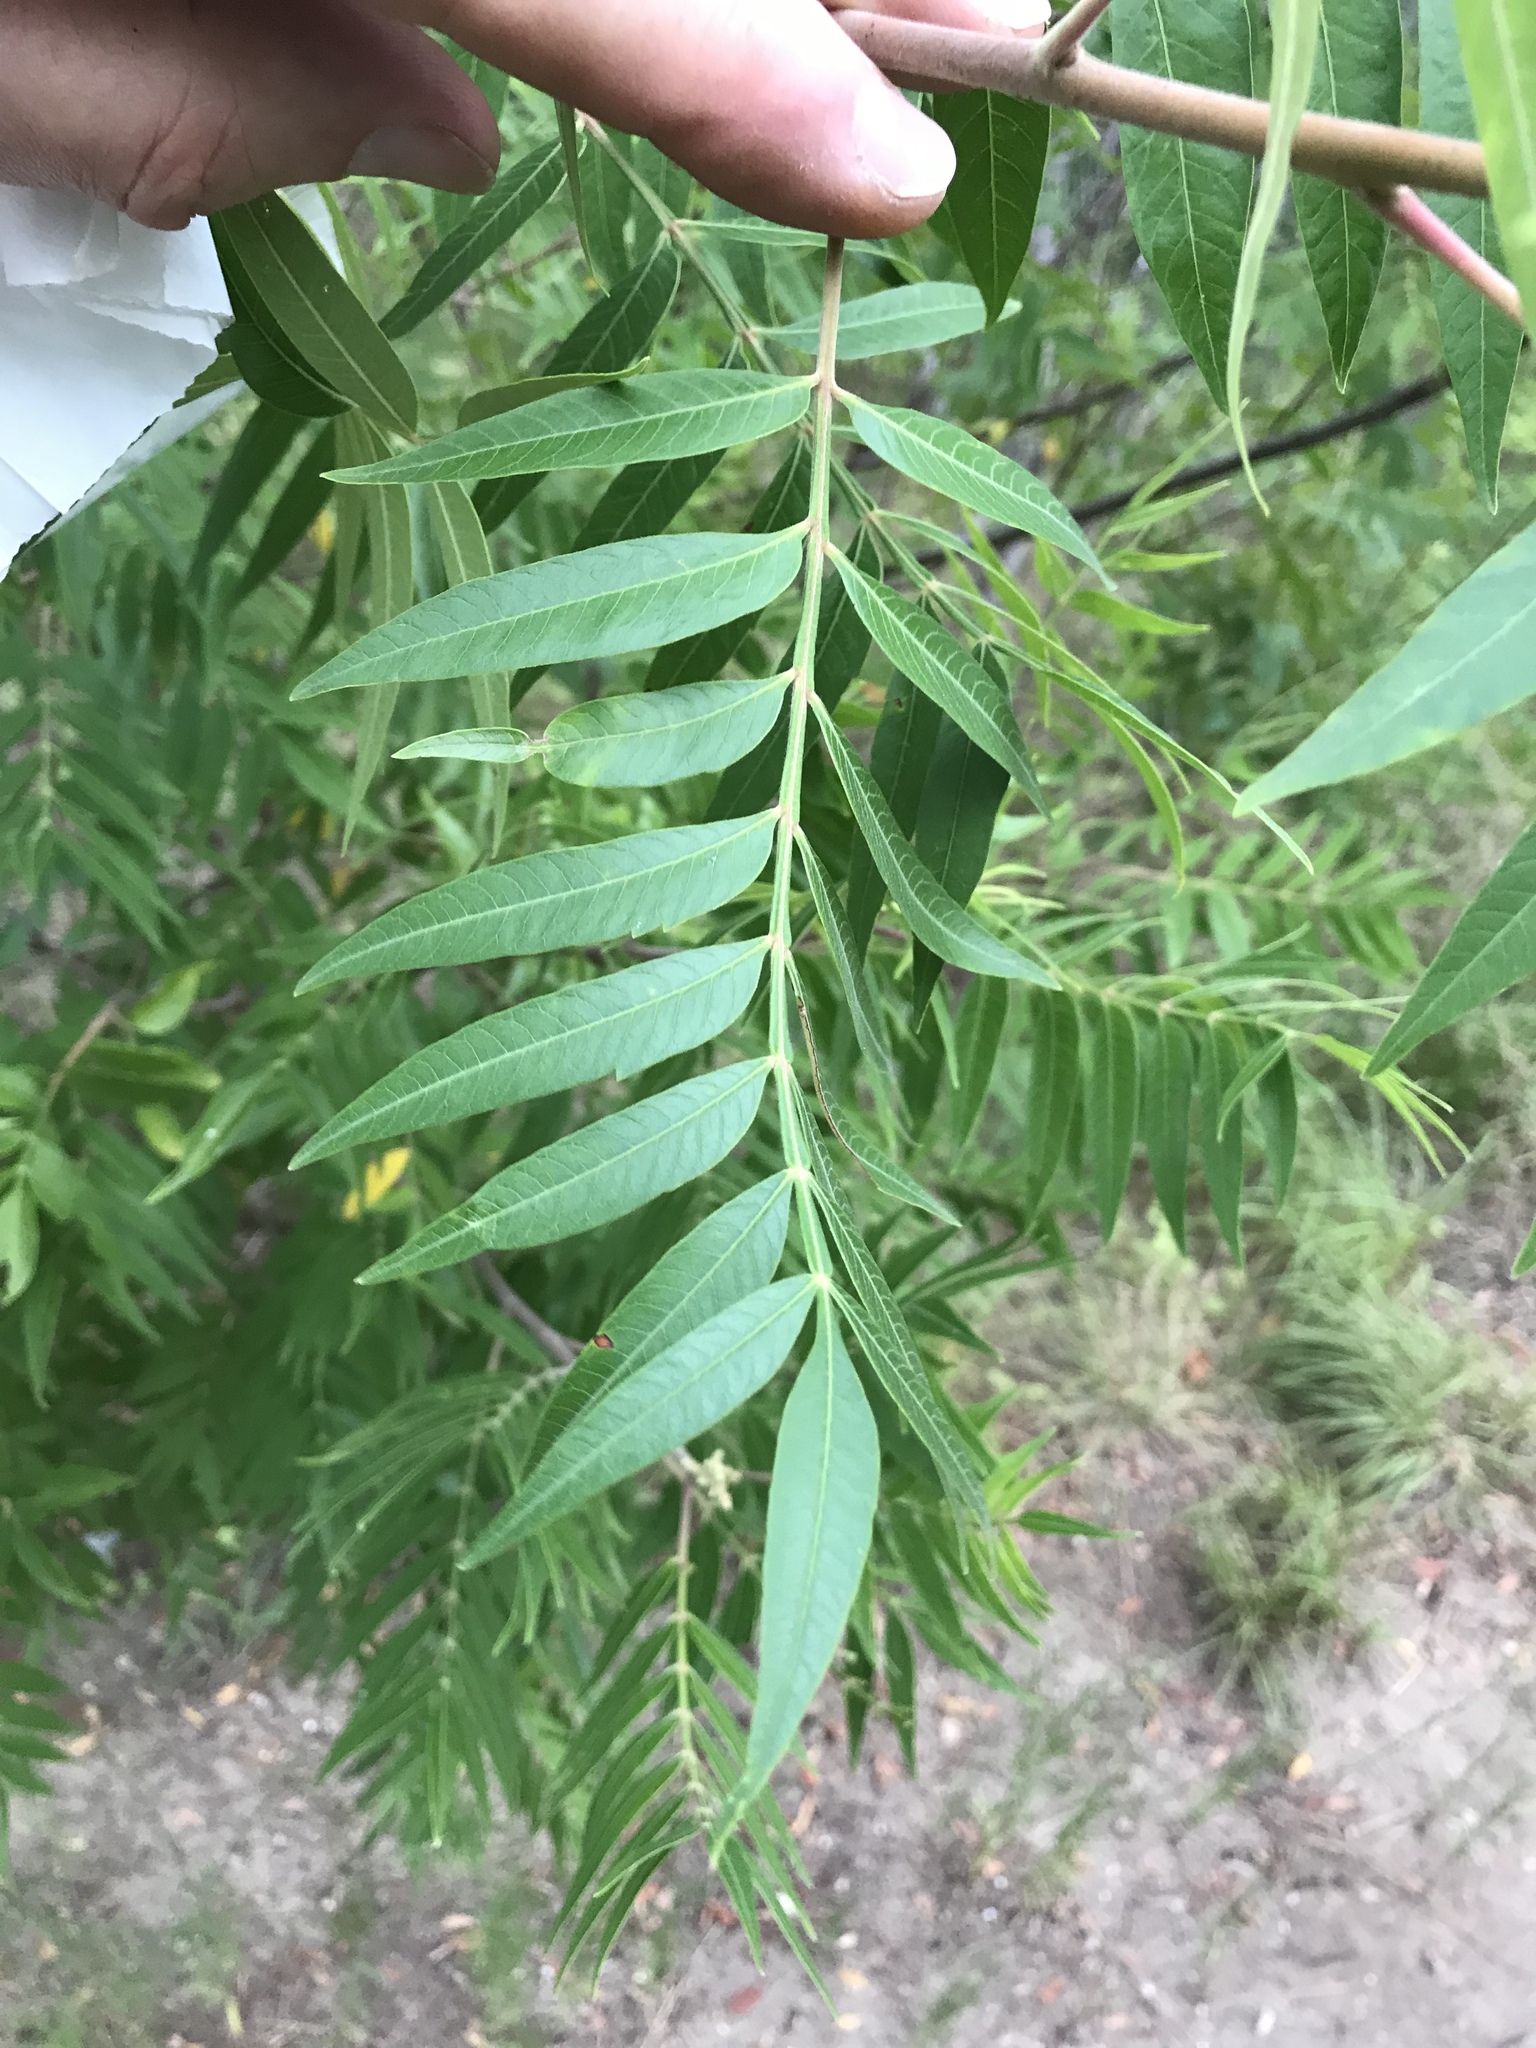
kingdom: Plantae
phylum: Tracheophyta
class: Magnoliopsida
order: Sapindales
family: Anacardiaceae
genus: Rhus
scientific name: Rhus lanceolata
